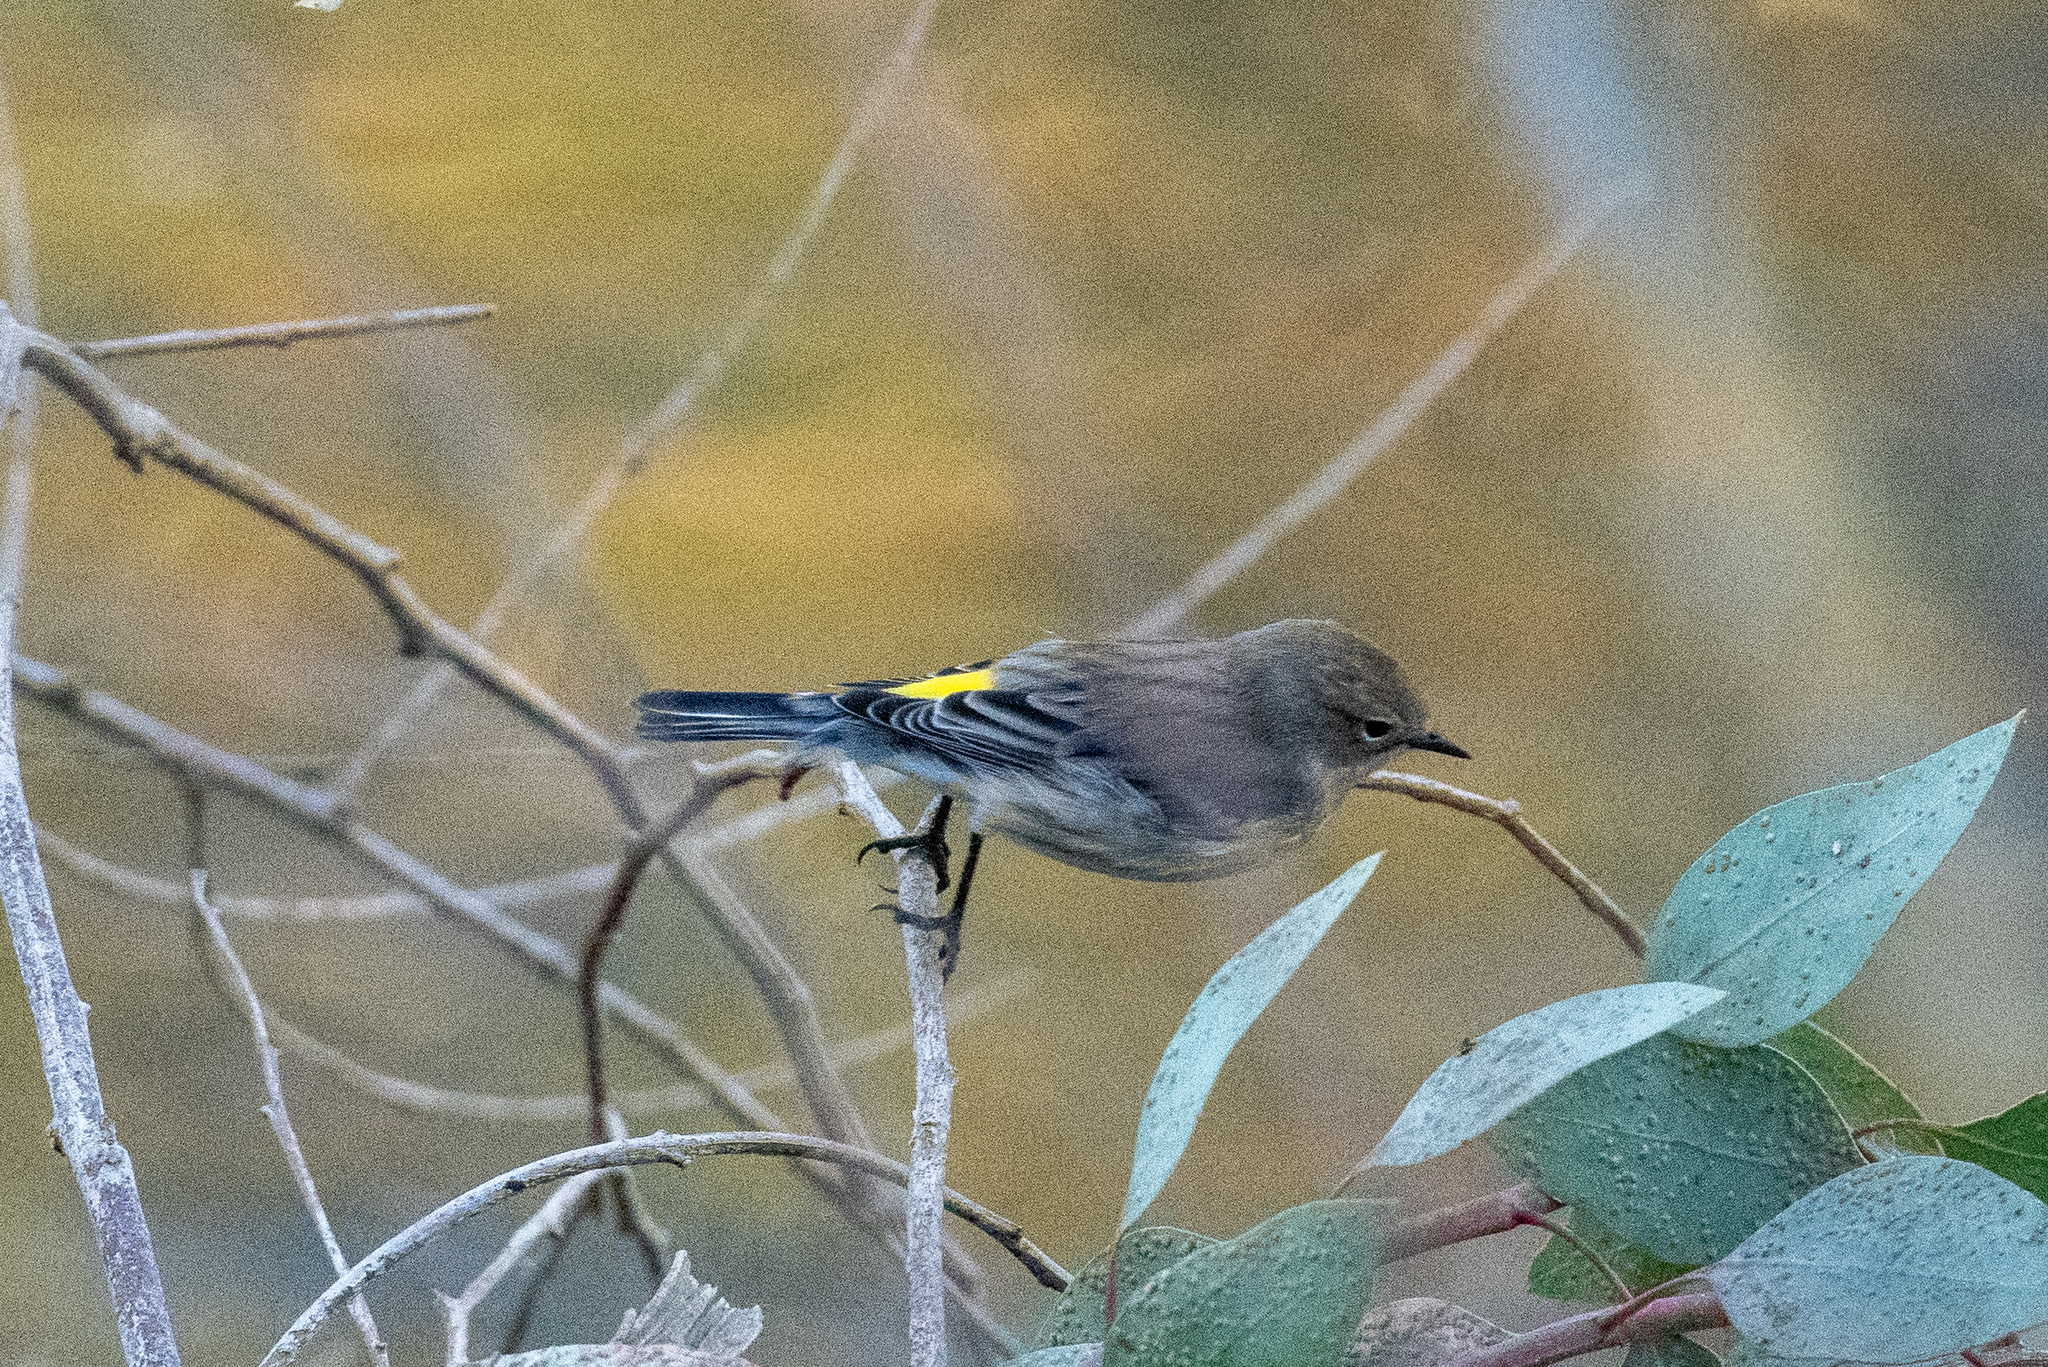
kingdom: Animalia
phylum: Chordata
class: Aves
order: Passeriformes
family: Parulidae
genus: Setophaga
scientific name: Setophaga coronata
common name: Myrtle warbler
